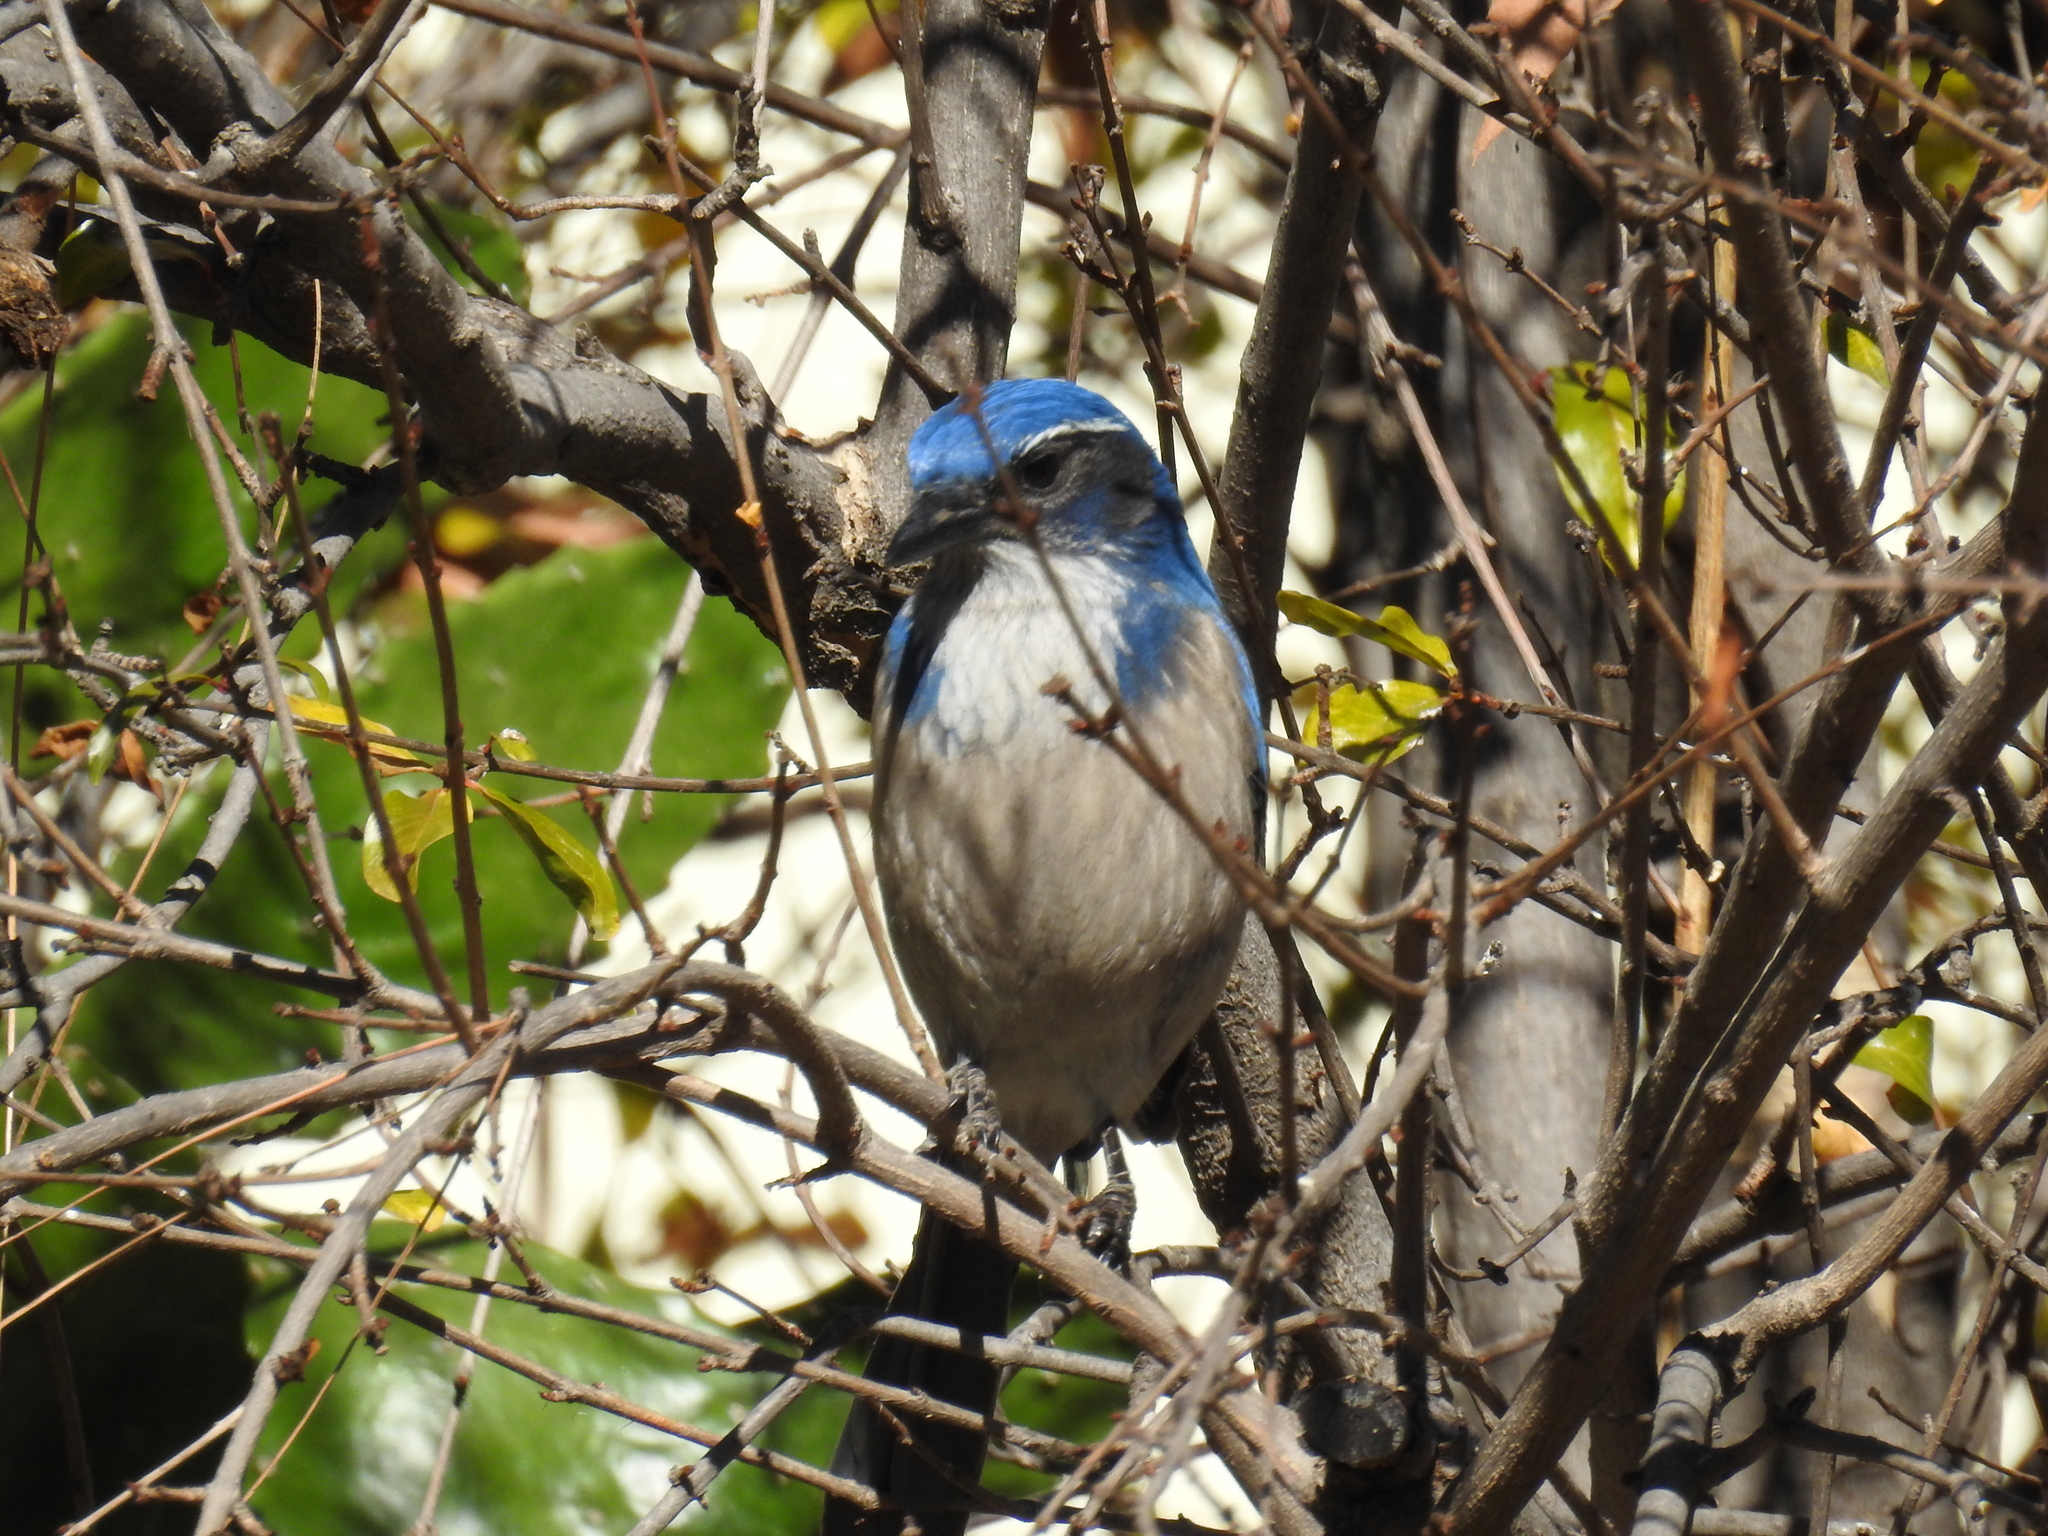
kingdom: Animalia
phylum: Chordata
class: Aves
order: Passeriformes
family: Corvidae
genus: Aphelocoma
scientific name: Aphelocoma californica
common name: California scrub-jay
